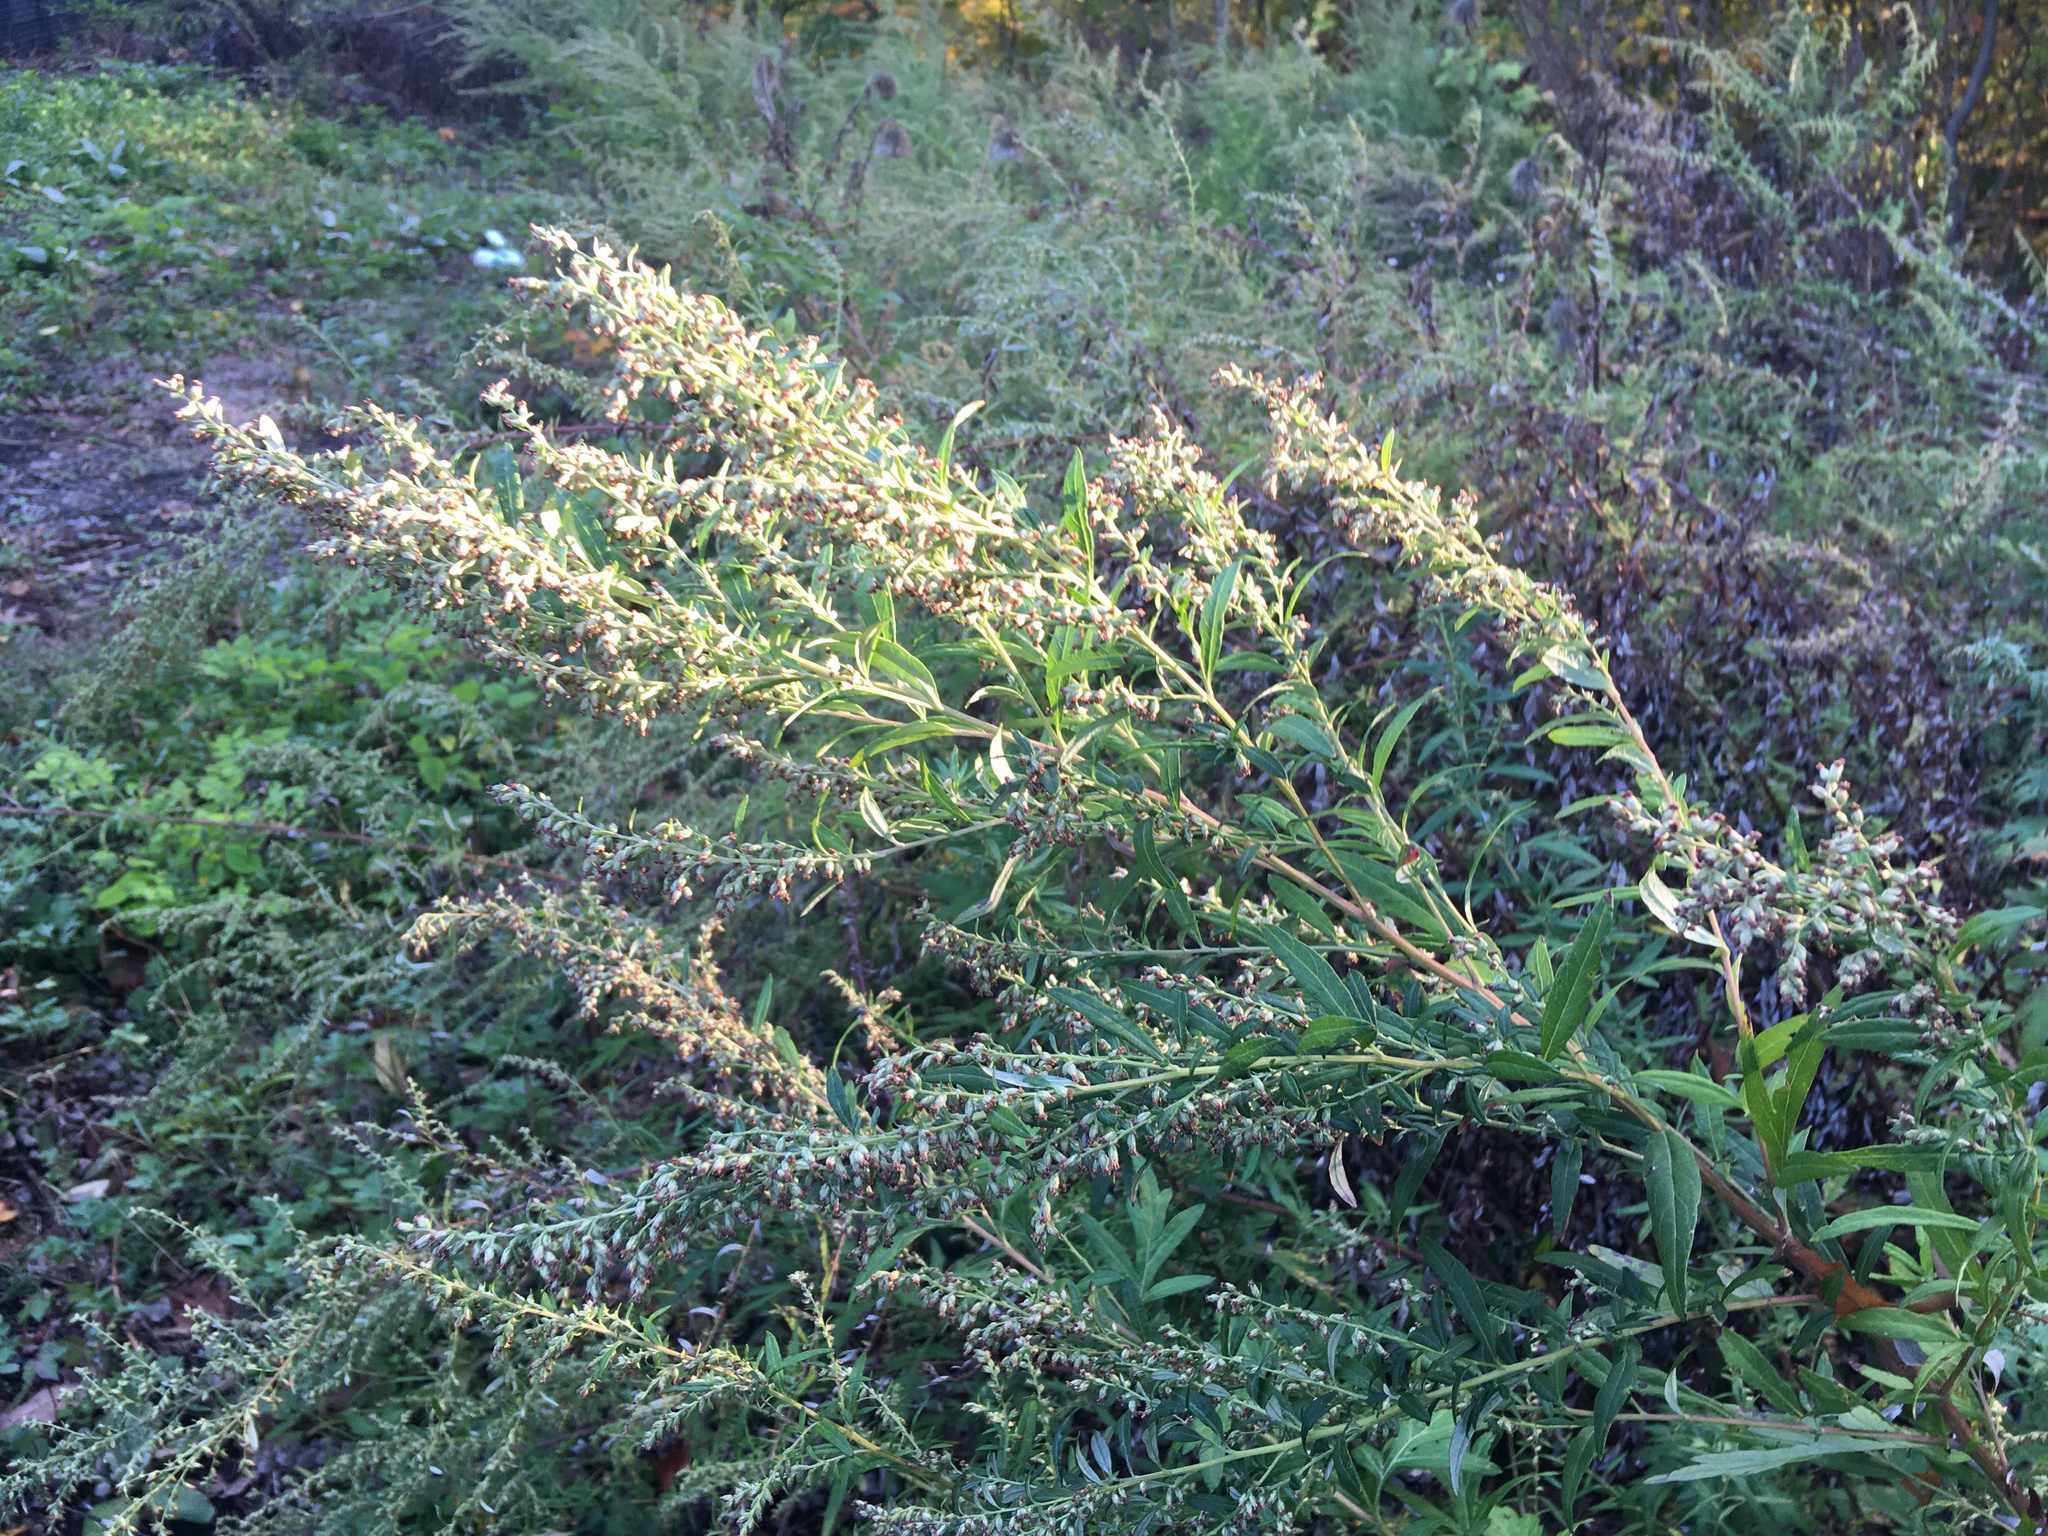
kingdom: Plantae
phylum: Tracheophyta
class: Magnoliopsida
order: Asterales
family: Asteraceae
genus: Artemisia
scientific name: Artemisia vulgaris
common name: Mugwort
